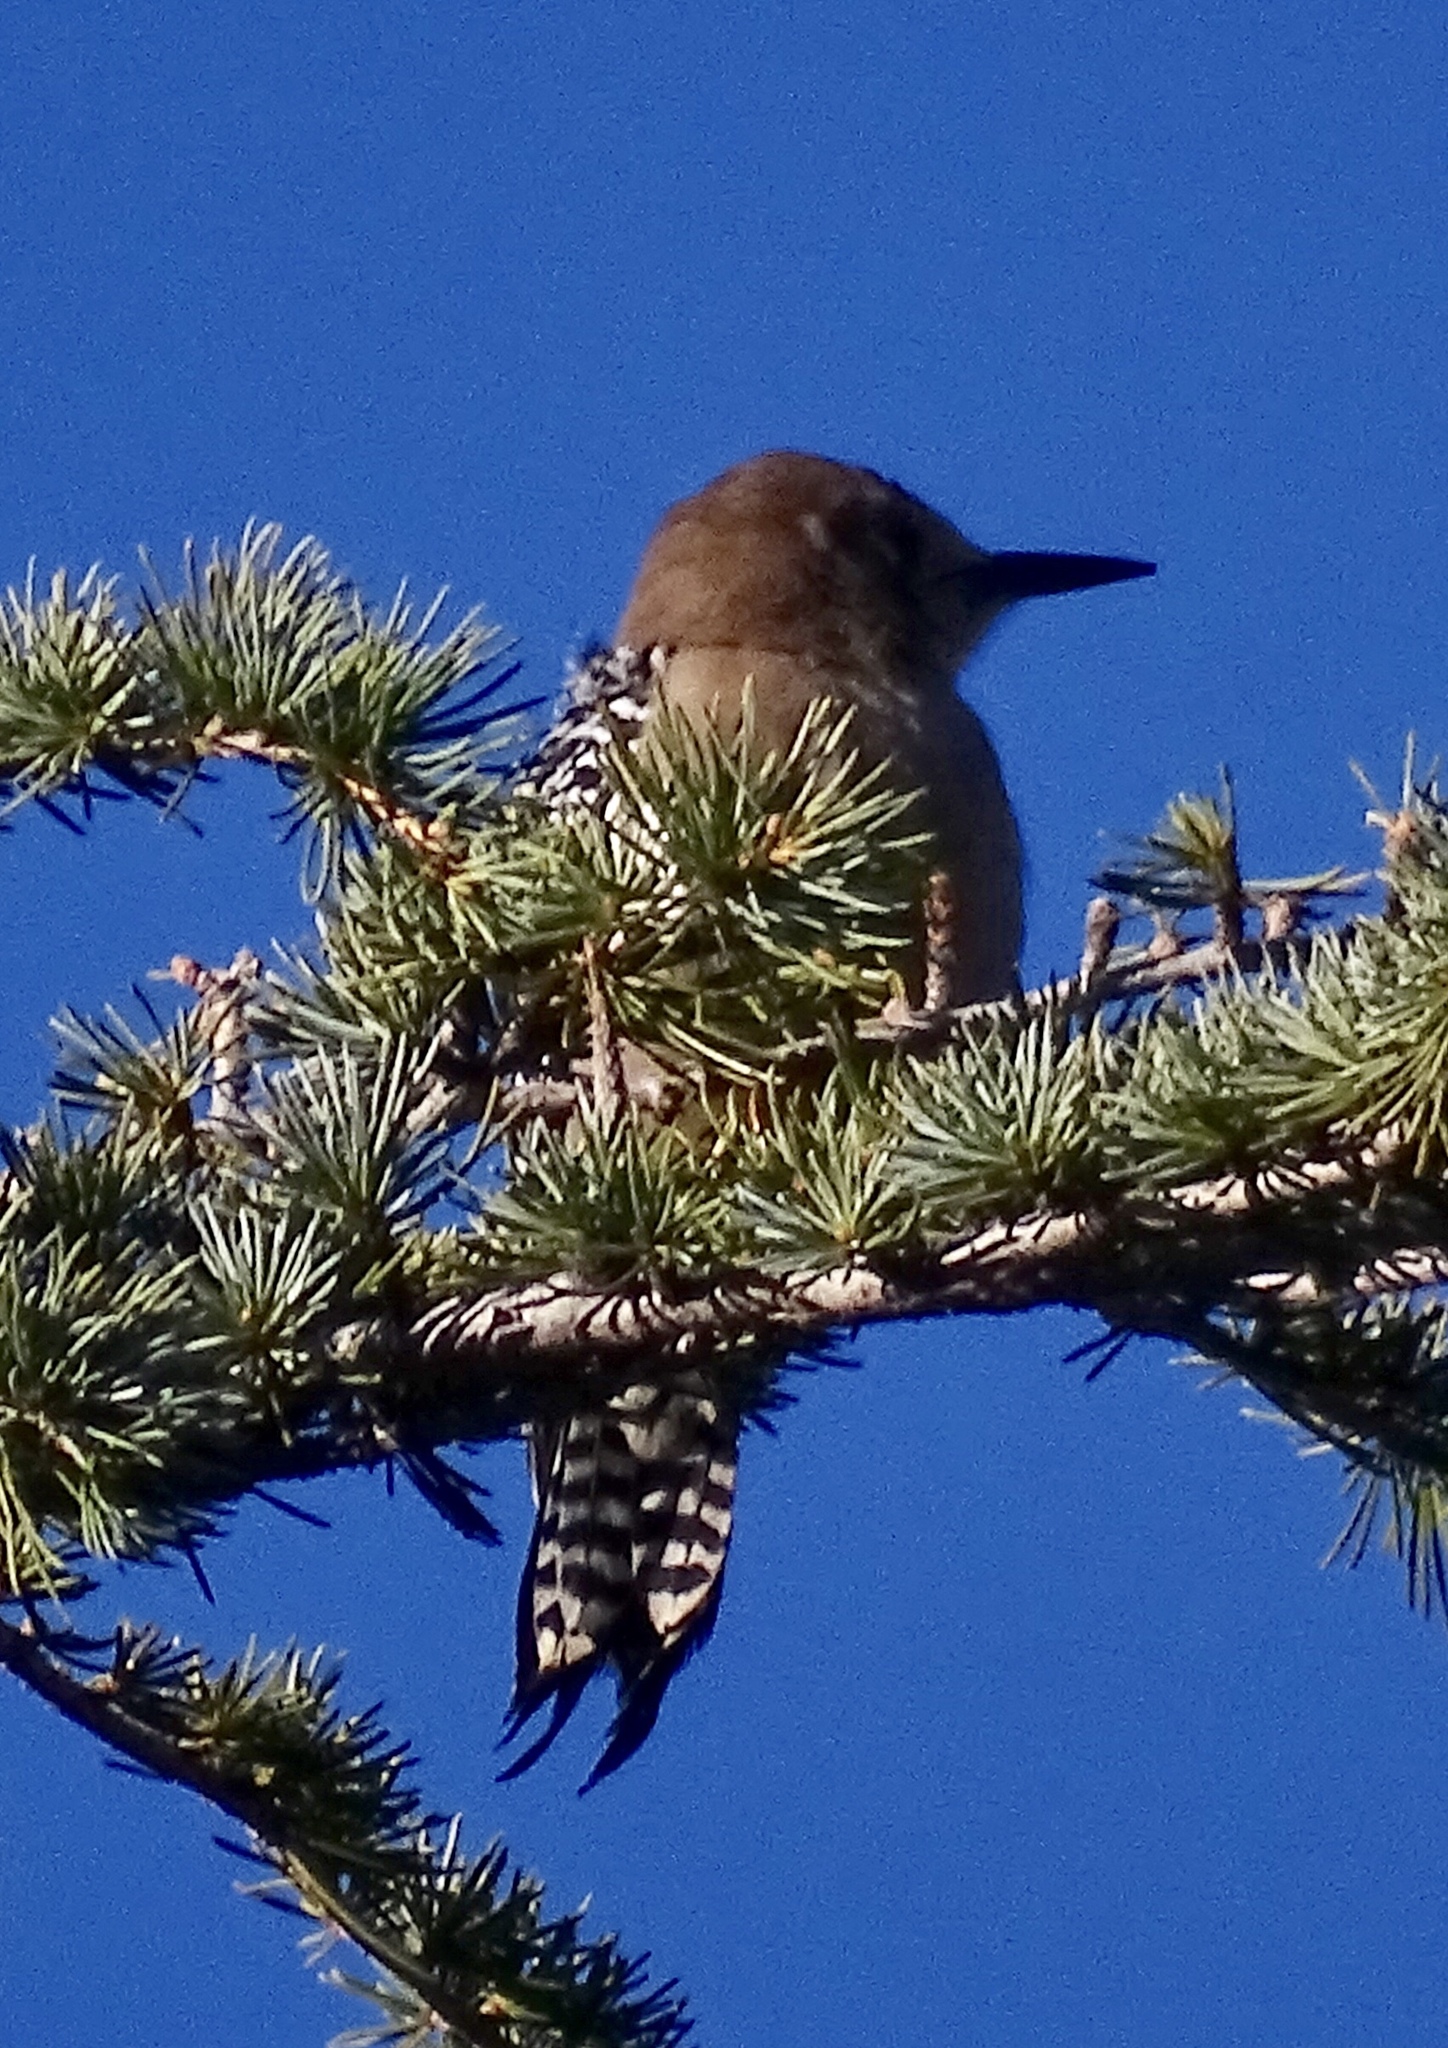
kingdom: Animalia
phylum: Chordata
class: Aves
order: Piciformes
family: Picidae
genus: Melanerpes
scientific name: Melanerpes uropygialis
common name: Gila woodpecker
